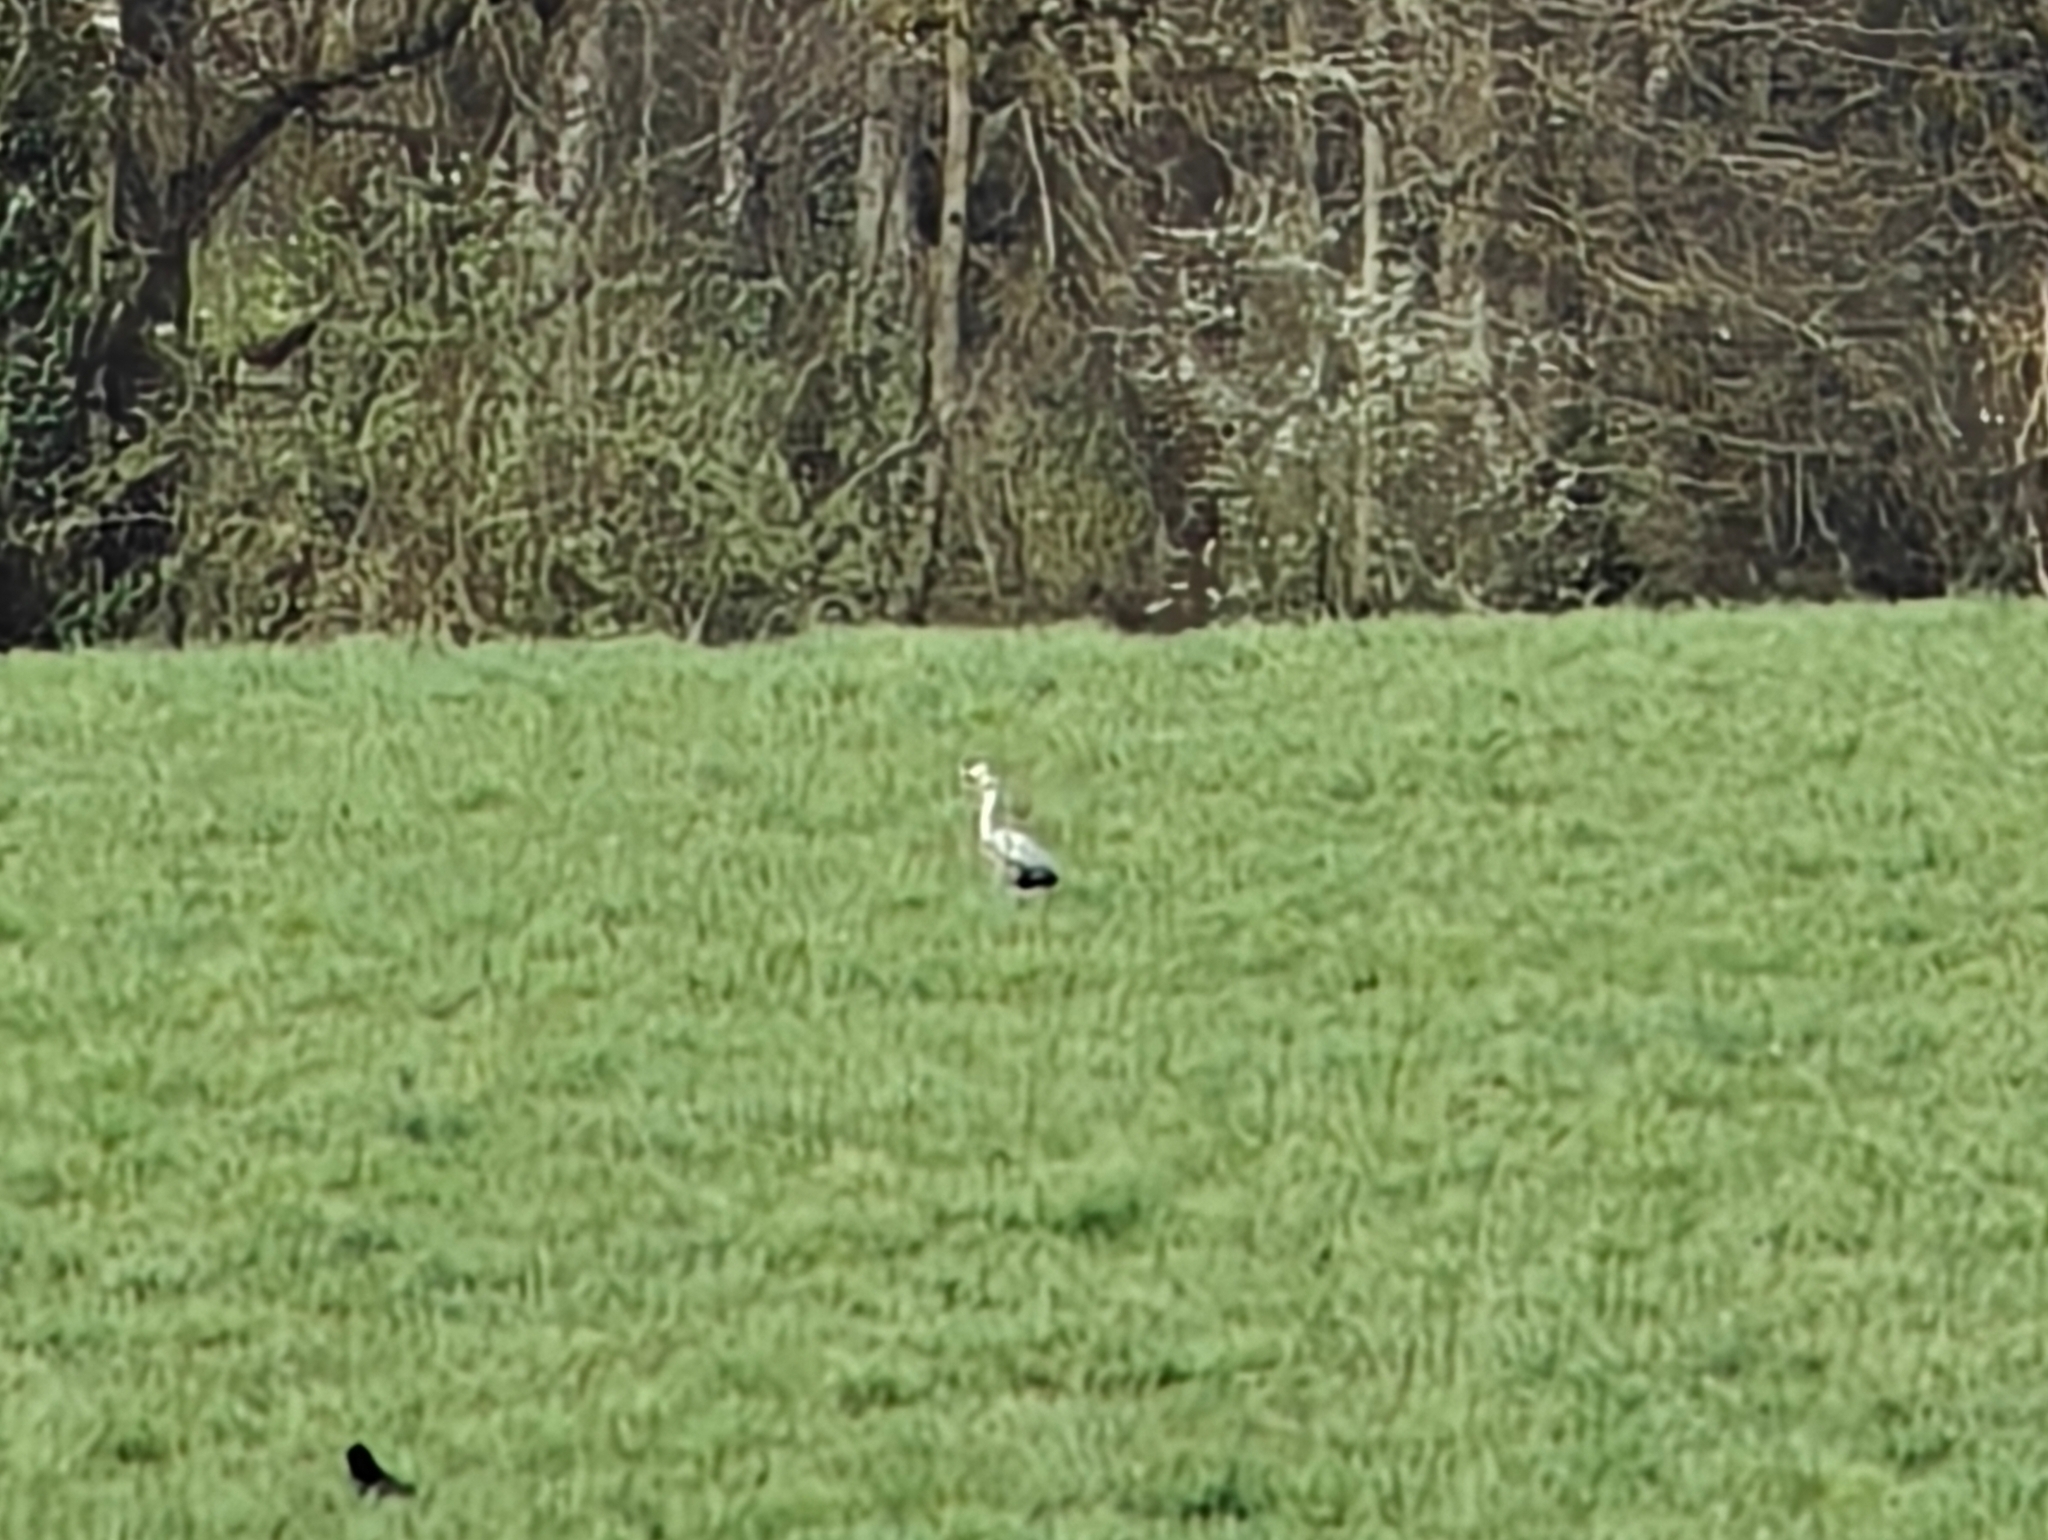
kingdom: Animalia
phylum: Chordata
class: Aves
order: Pelecaniformes
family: Ardeidae
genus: Ardea
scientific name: Ardea cinerea
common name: Grey heron
